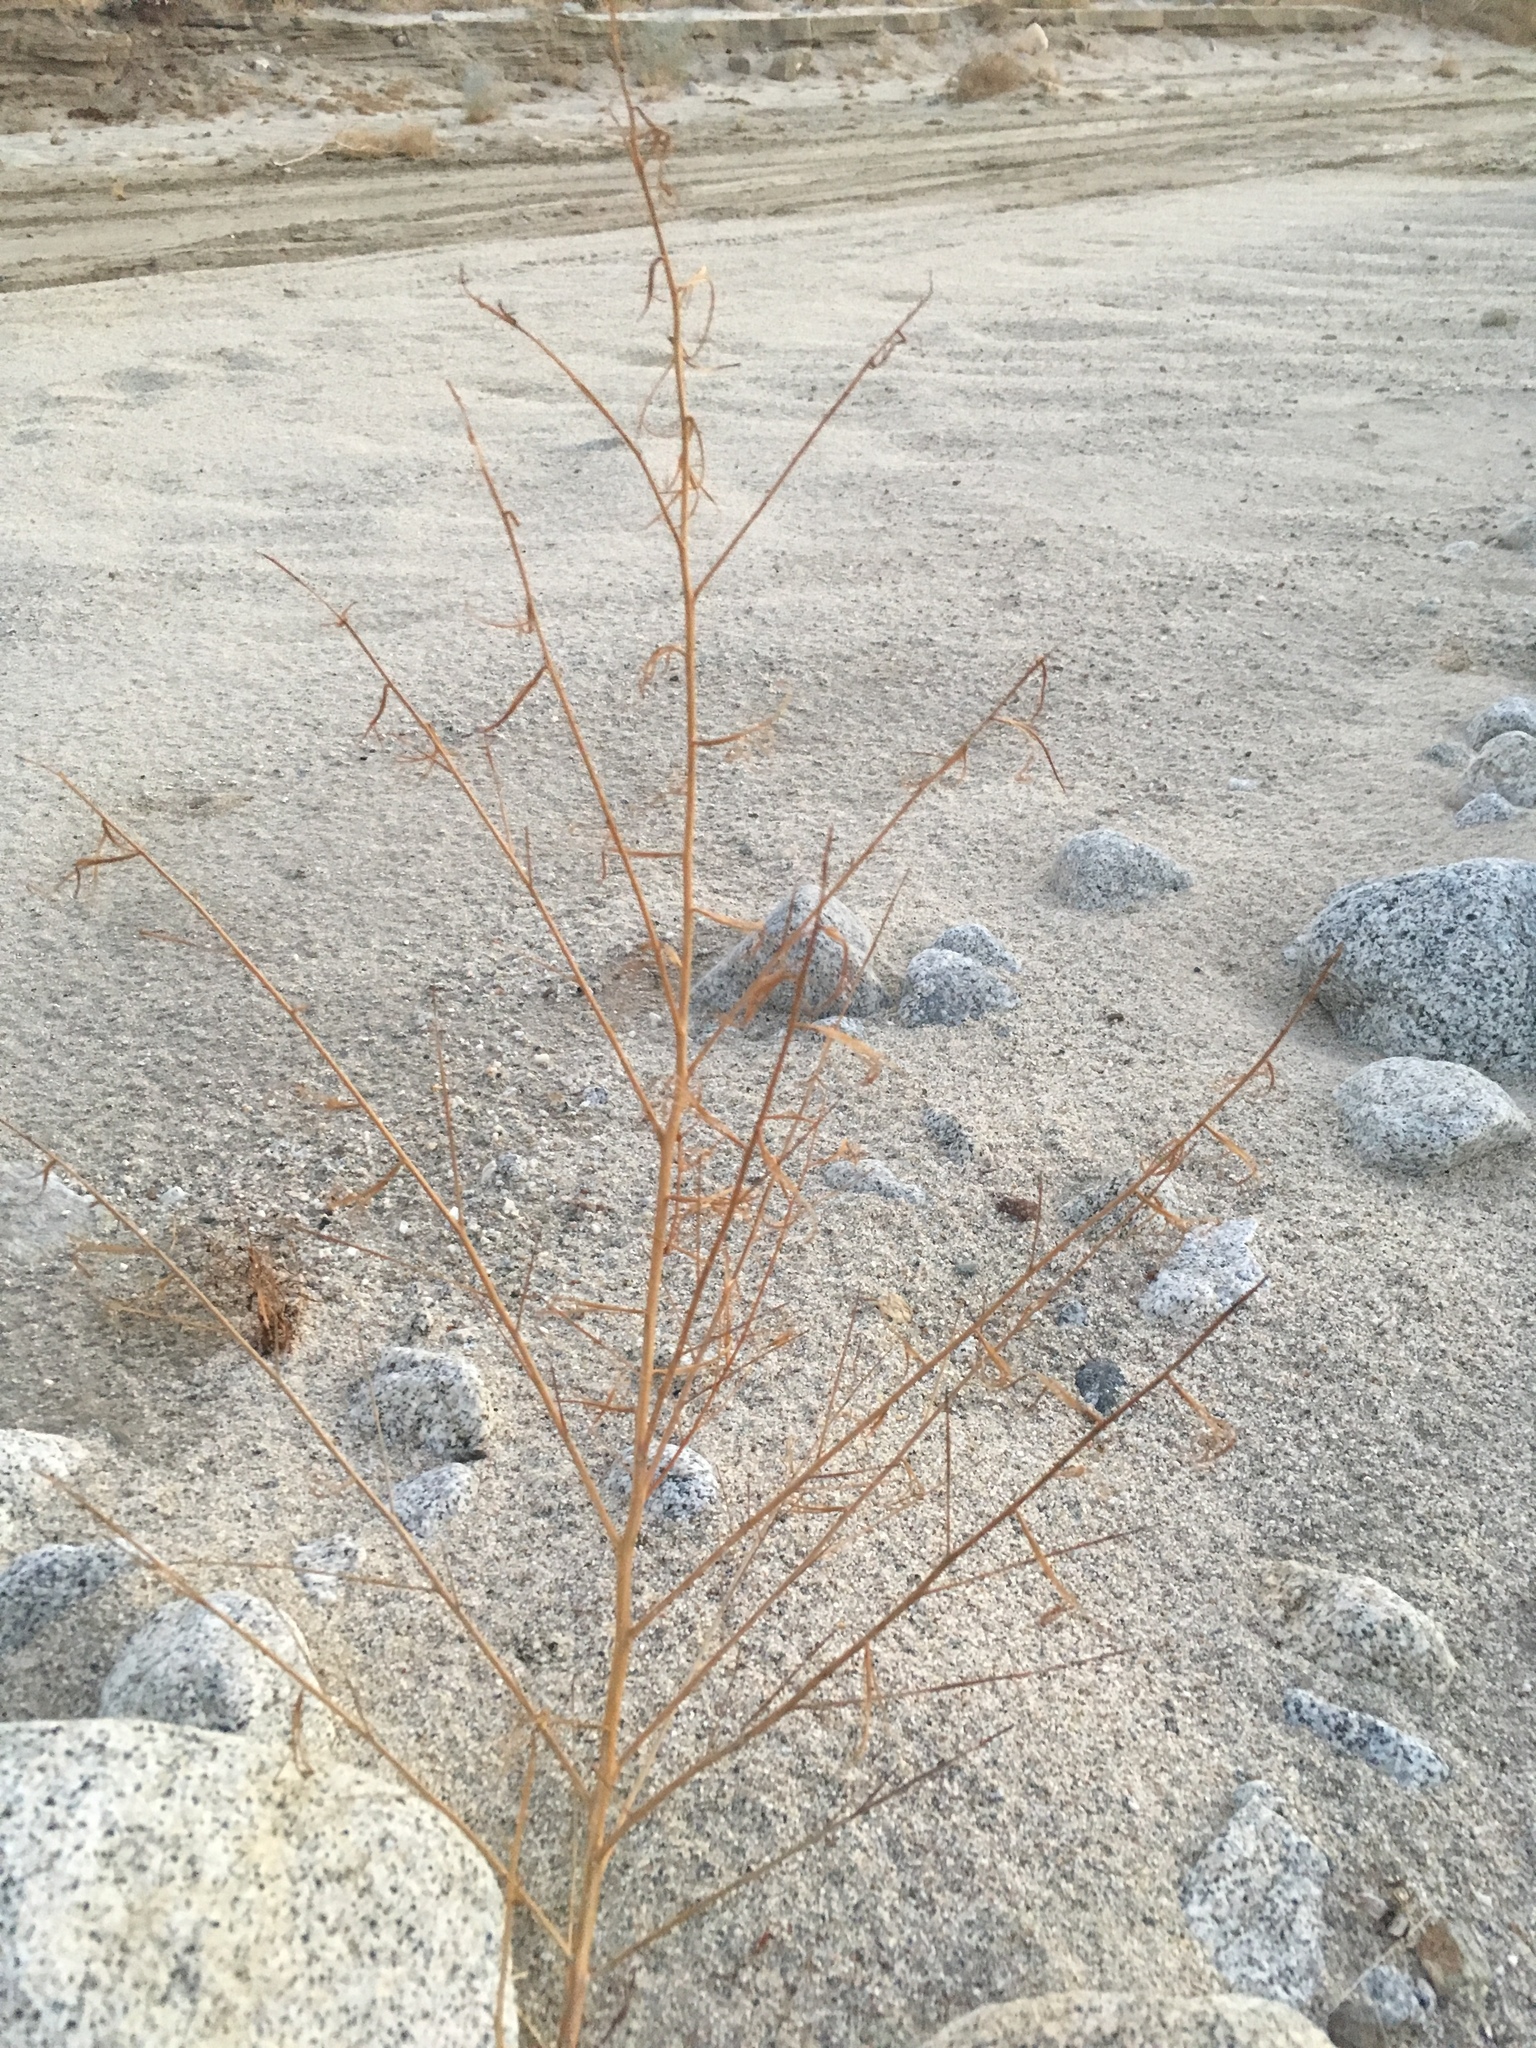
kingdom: Plantae
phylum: Tracheophyta
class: Magnoliopsida
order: Myrtales
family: Onagraceae
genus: Eulobus
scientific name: Eulobus californicus
